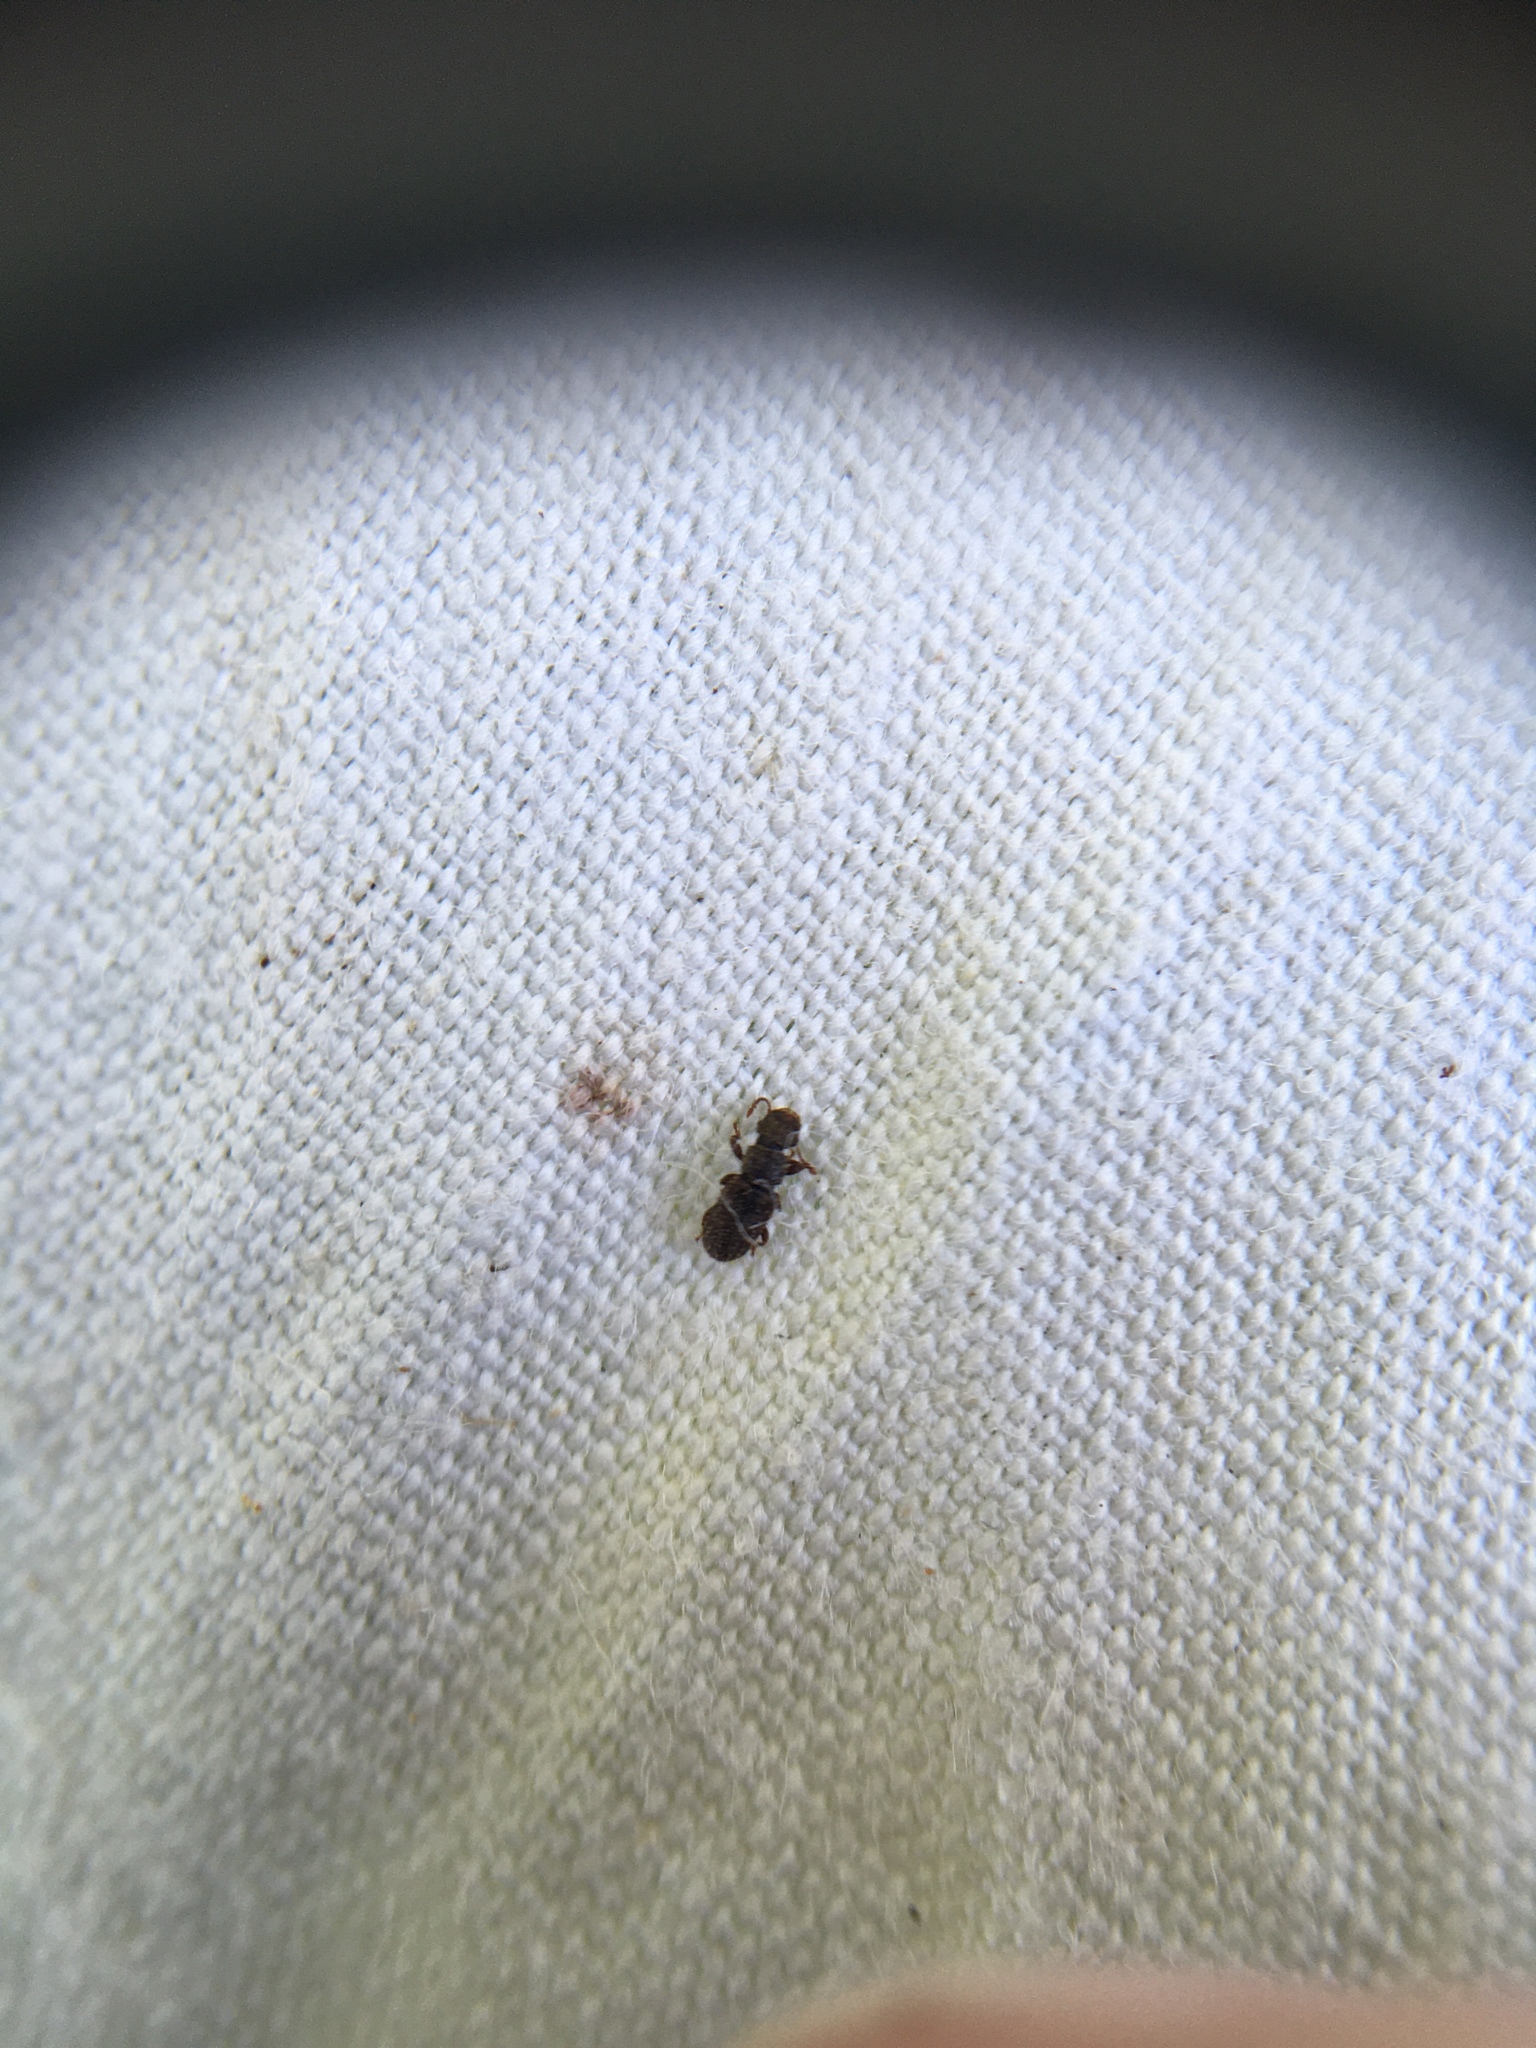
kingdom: Animalia
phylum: Arthropoda
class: Insecta
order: Coleoptera
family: Belidae
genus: Aralius
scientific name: Aralius wollastoni
